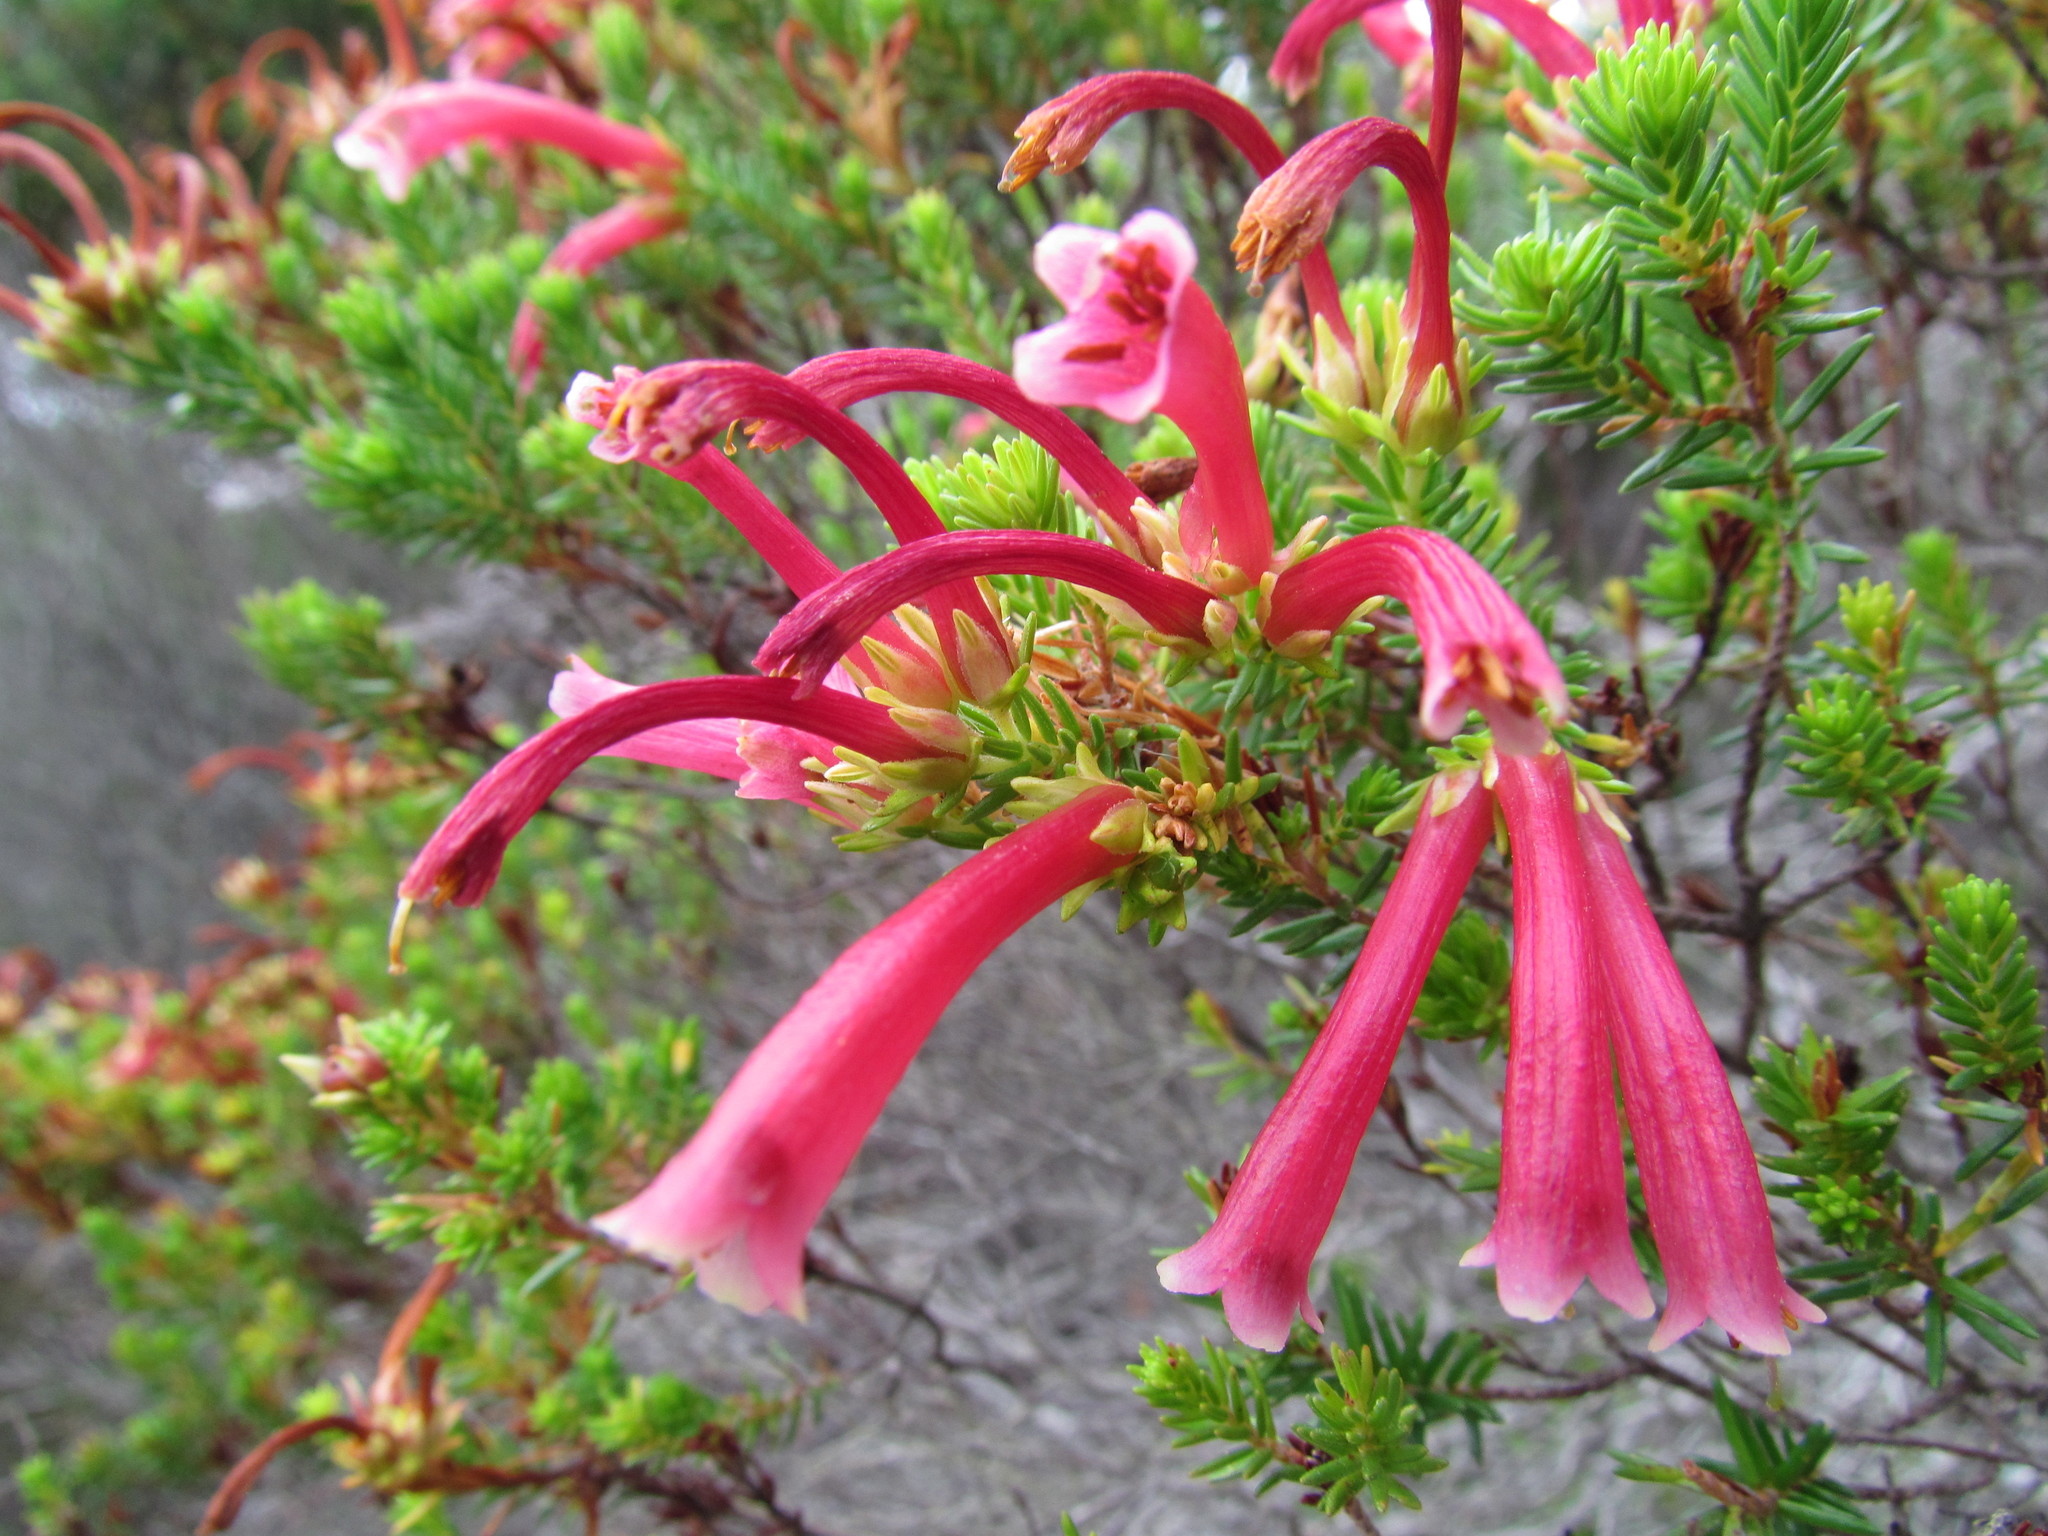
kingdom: Plantae
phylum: Tracheophyta
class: Magnoliopsida
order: Ericales
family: Ericaceae
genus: Erica
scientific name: Erica discolor
